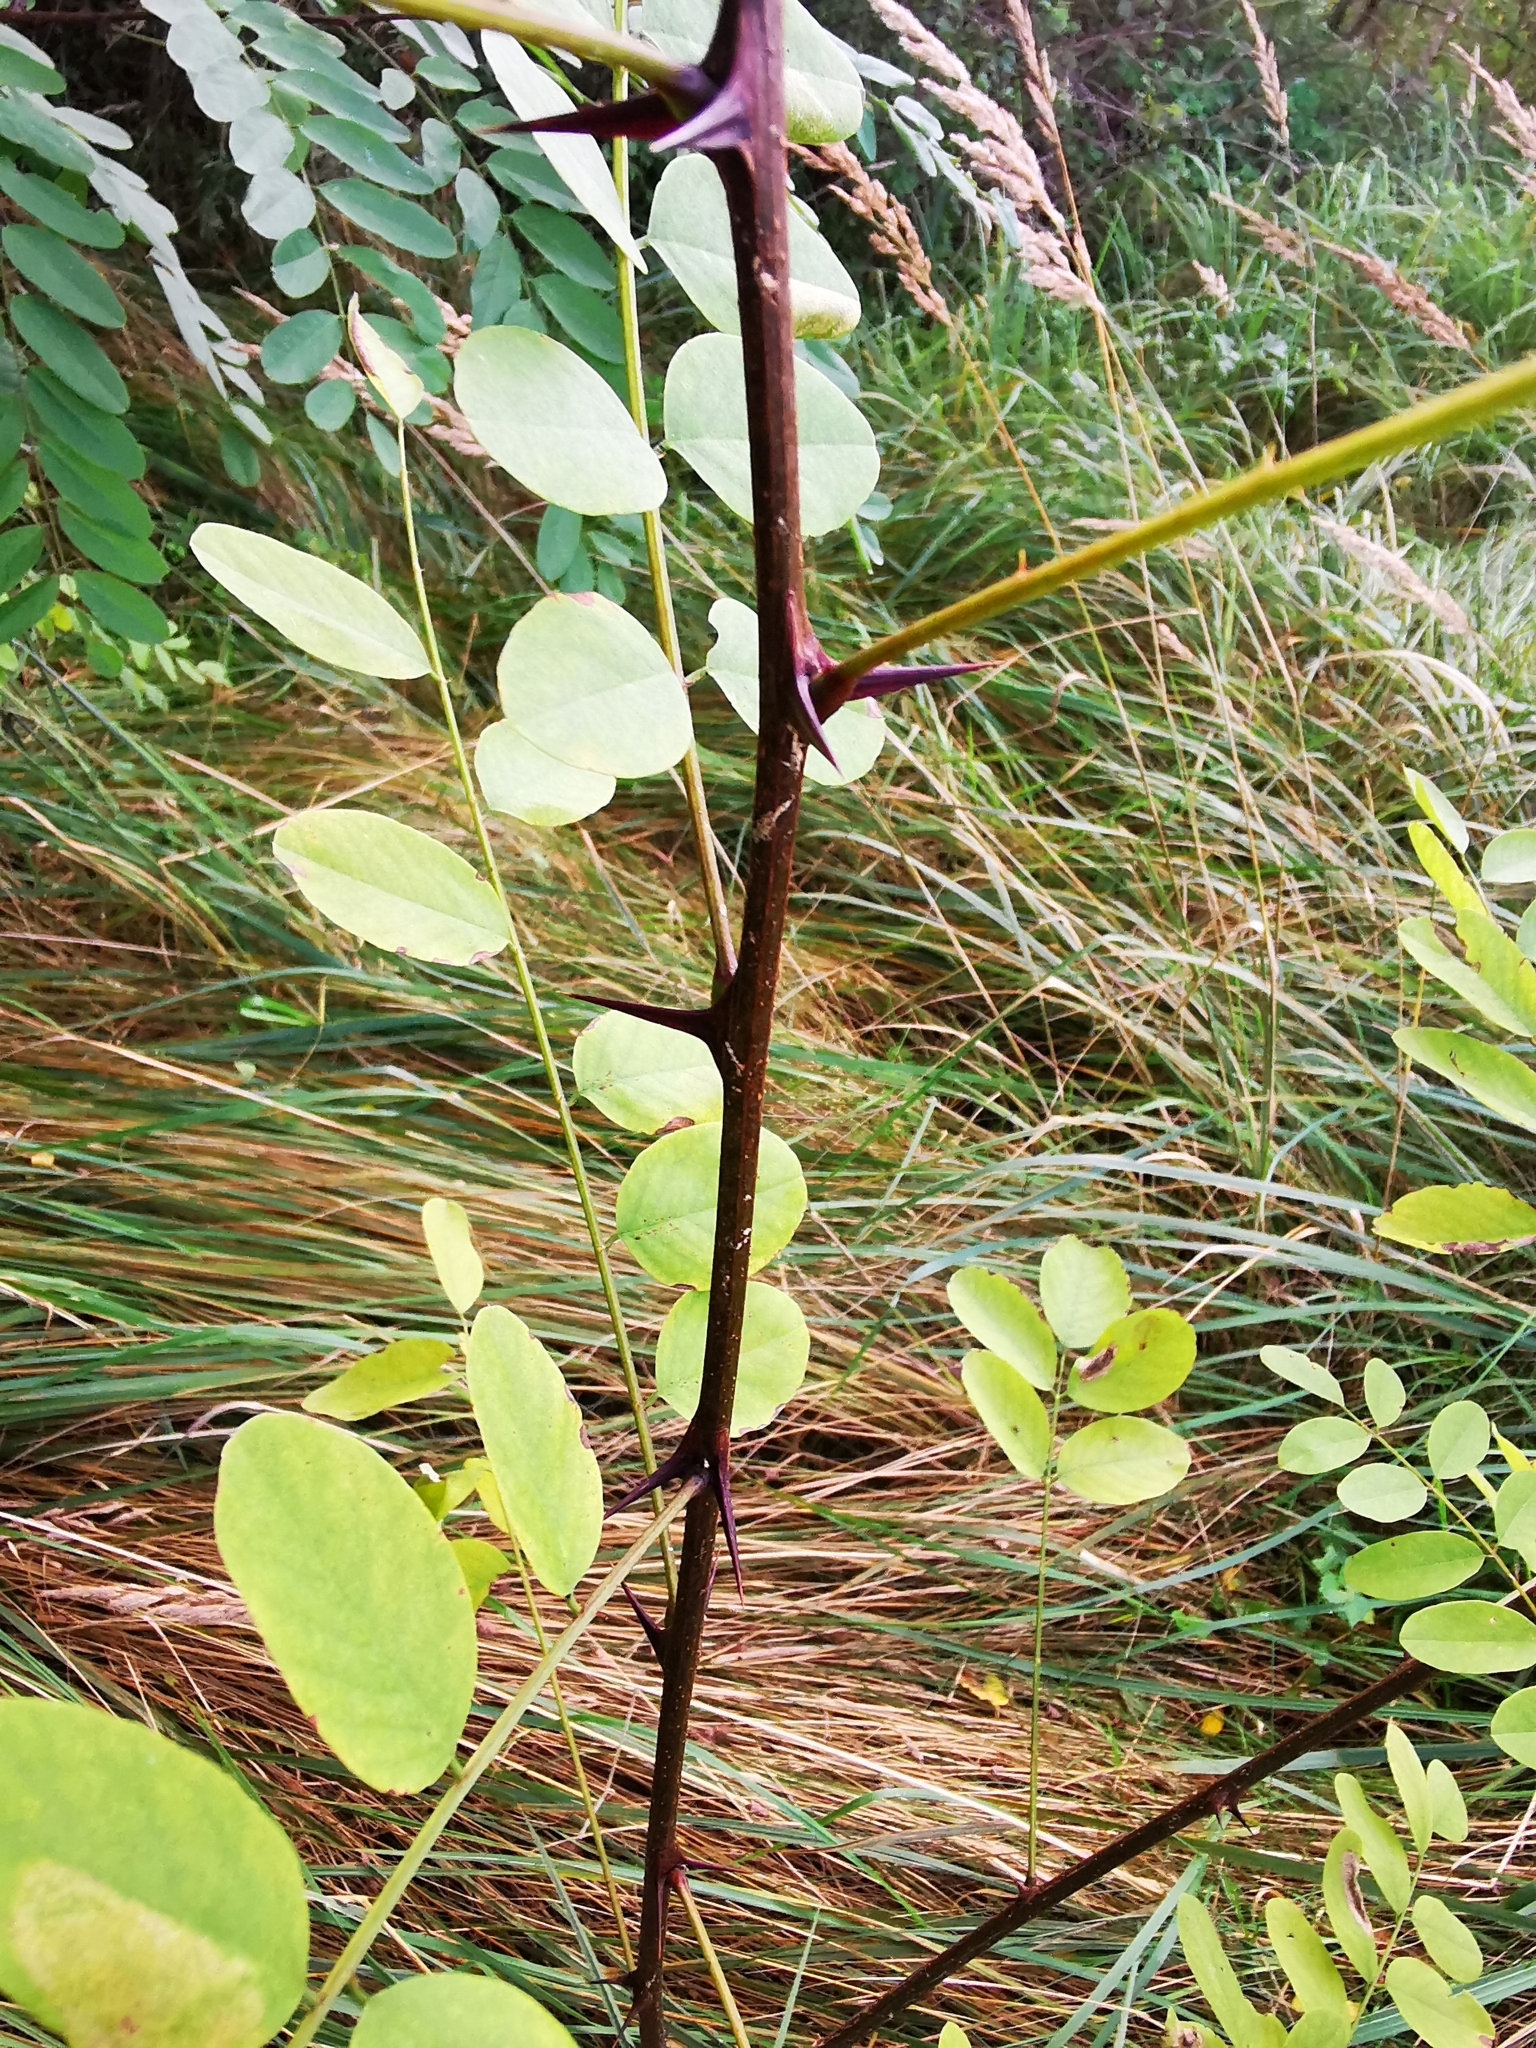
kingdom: Plantae
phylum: Tracheophyta
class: Magnoliopsida
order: Fabales
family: Fabaceae
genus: Robinia
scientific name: Robinia pseudoacacia
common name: Black locust
